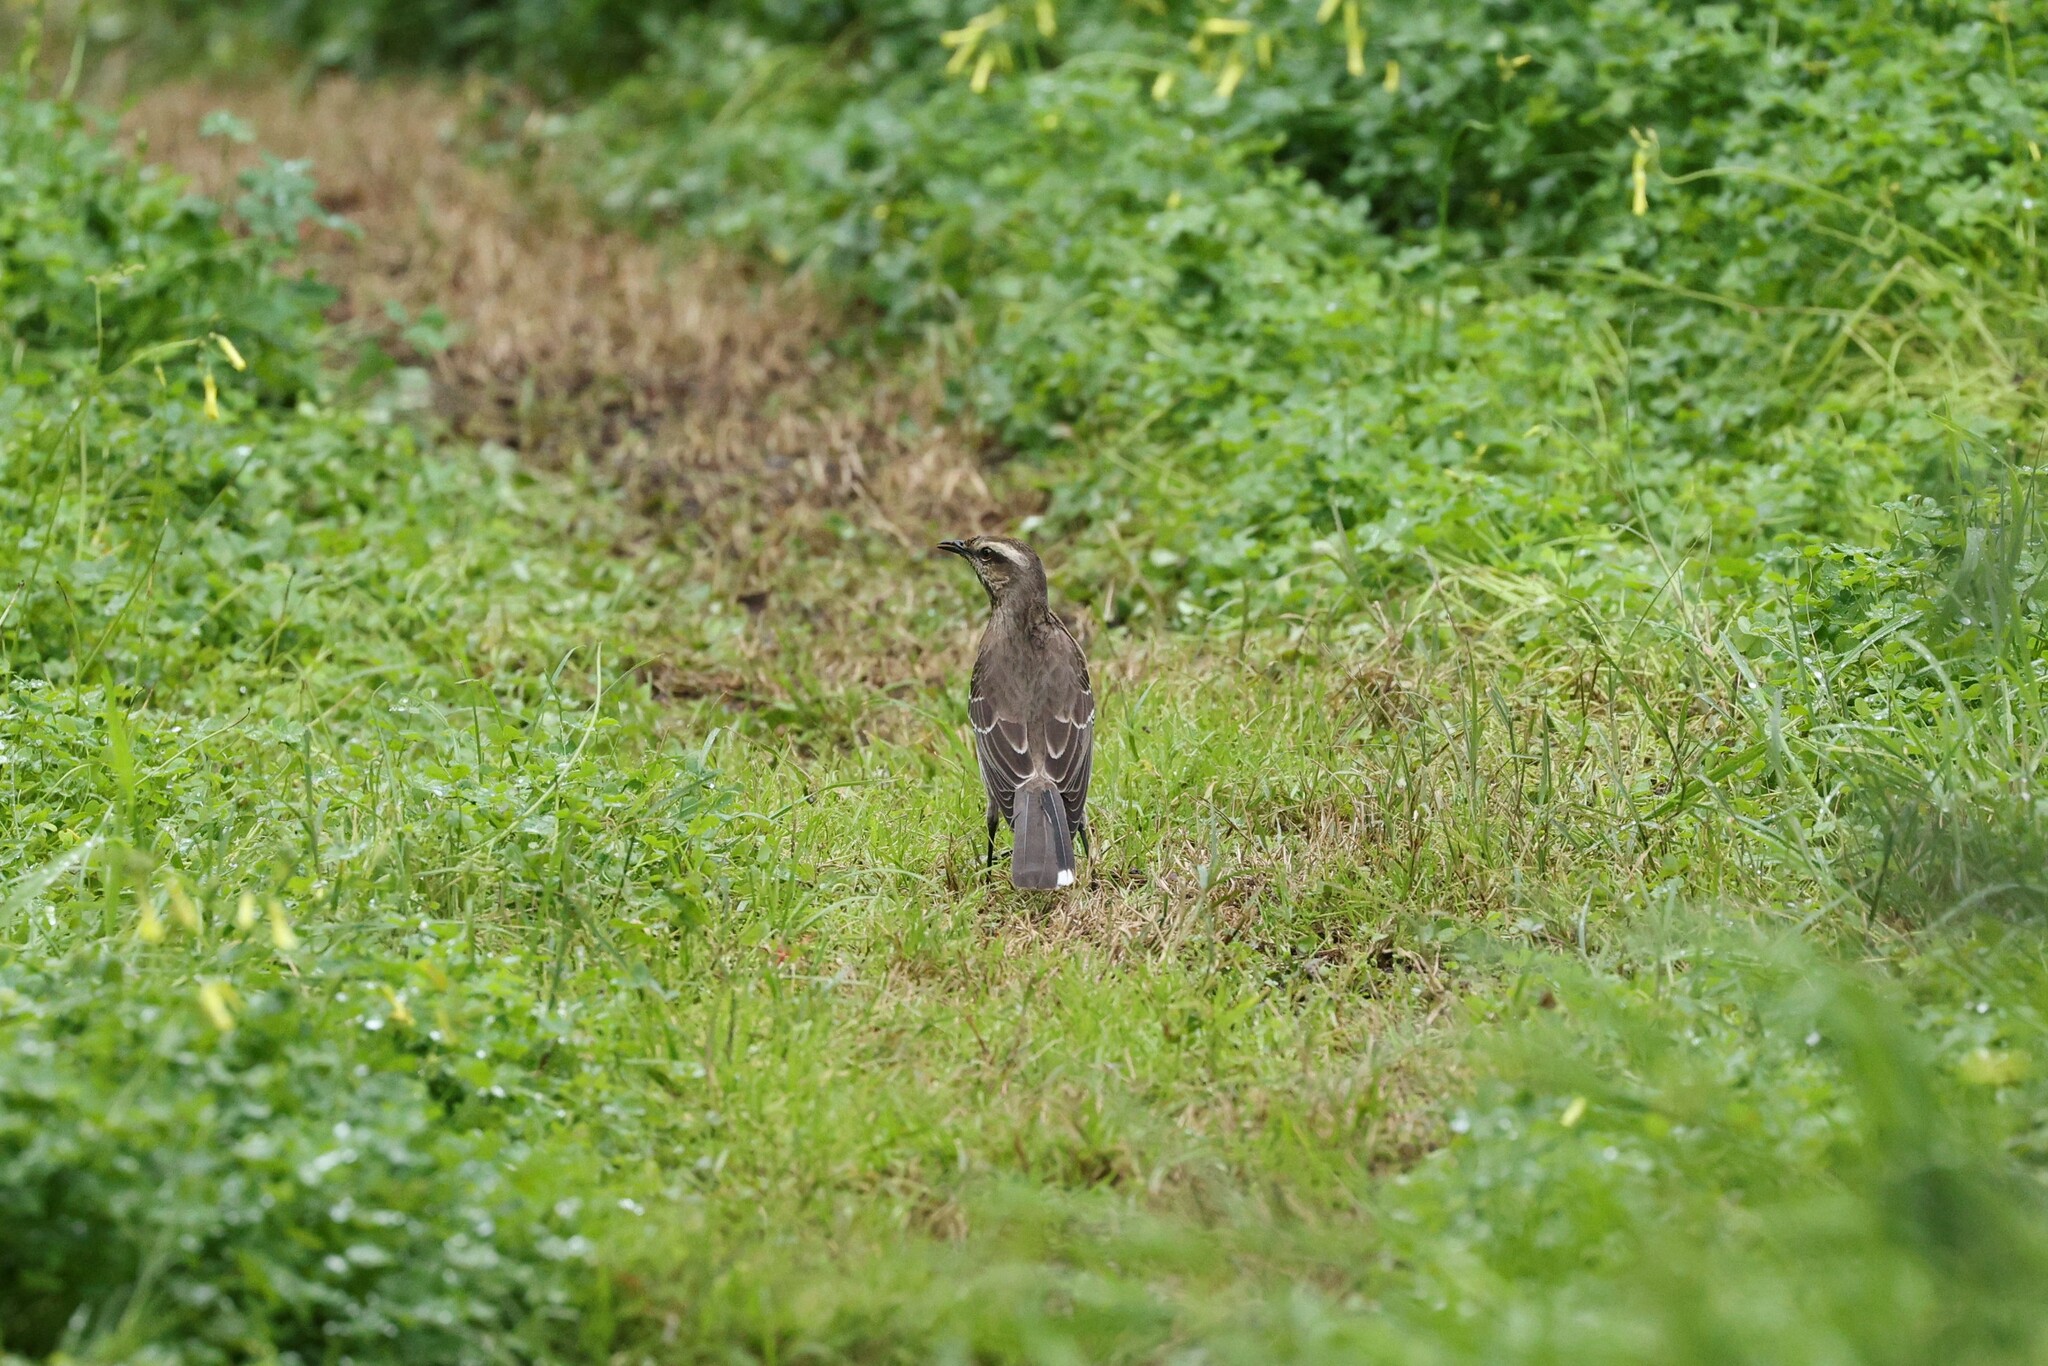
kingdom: Animalia
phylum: Chordata
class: Aves
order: Passeriformes
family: Mimidae
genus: Mimus
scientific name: Mimus thenca
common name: Chilean mockingbird
